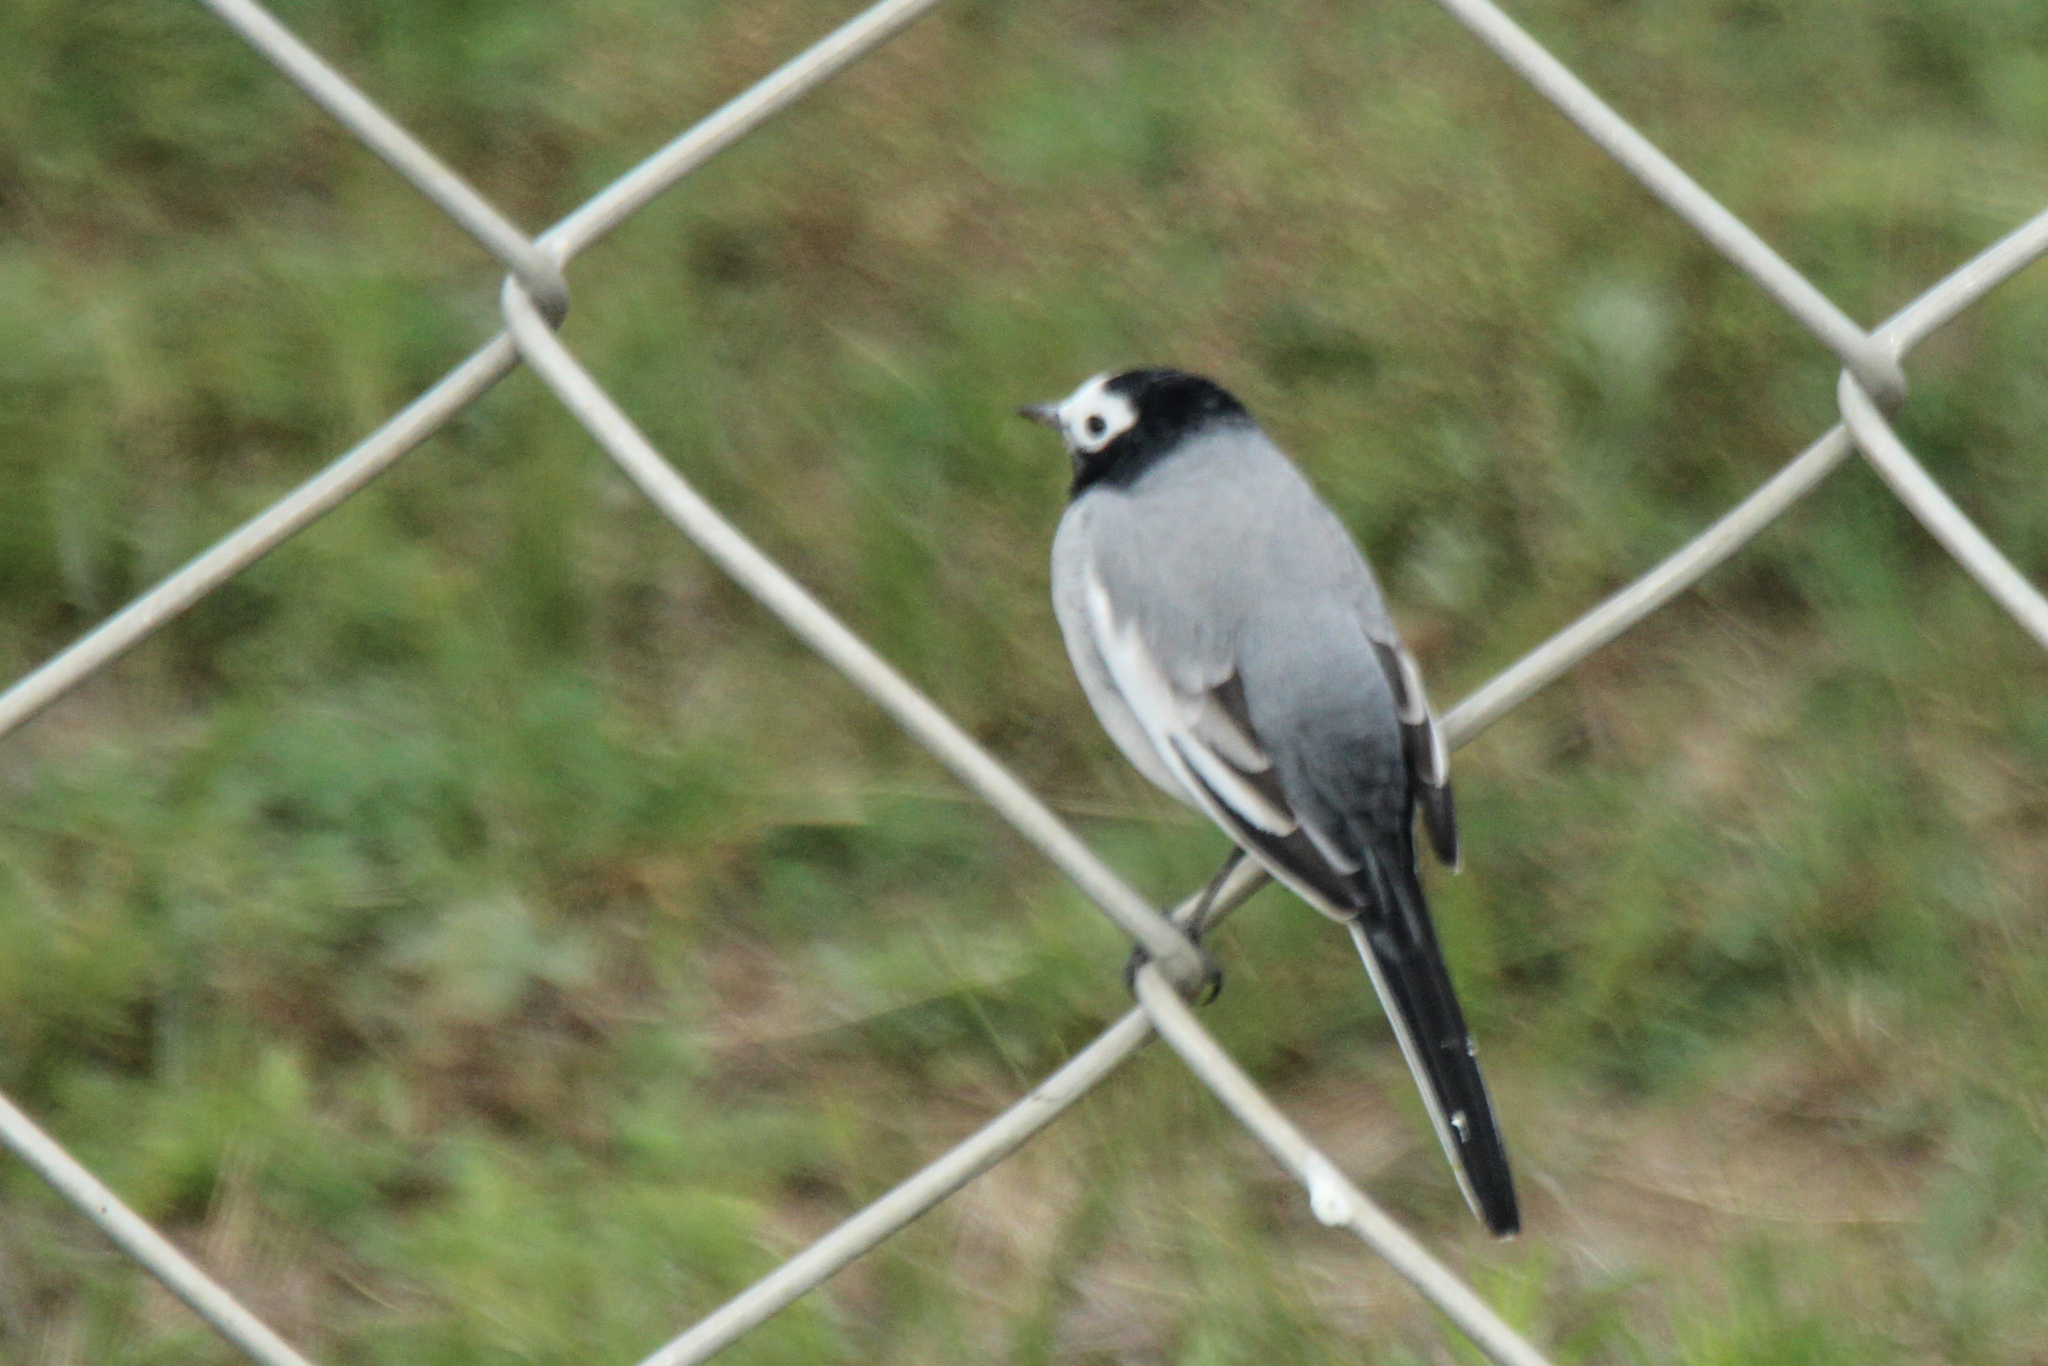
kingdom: Animalia
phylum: Chordata
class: Aves
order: Passeriformes
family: Motacillidae
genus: Motacilla
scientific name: Motacilla alba
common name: White wagtail
